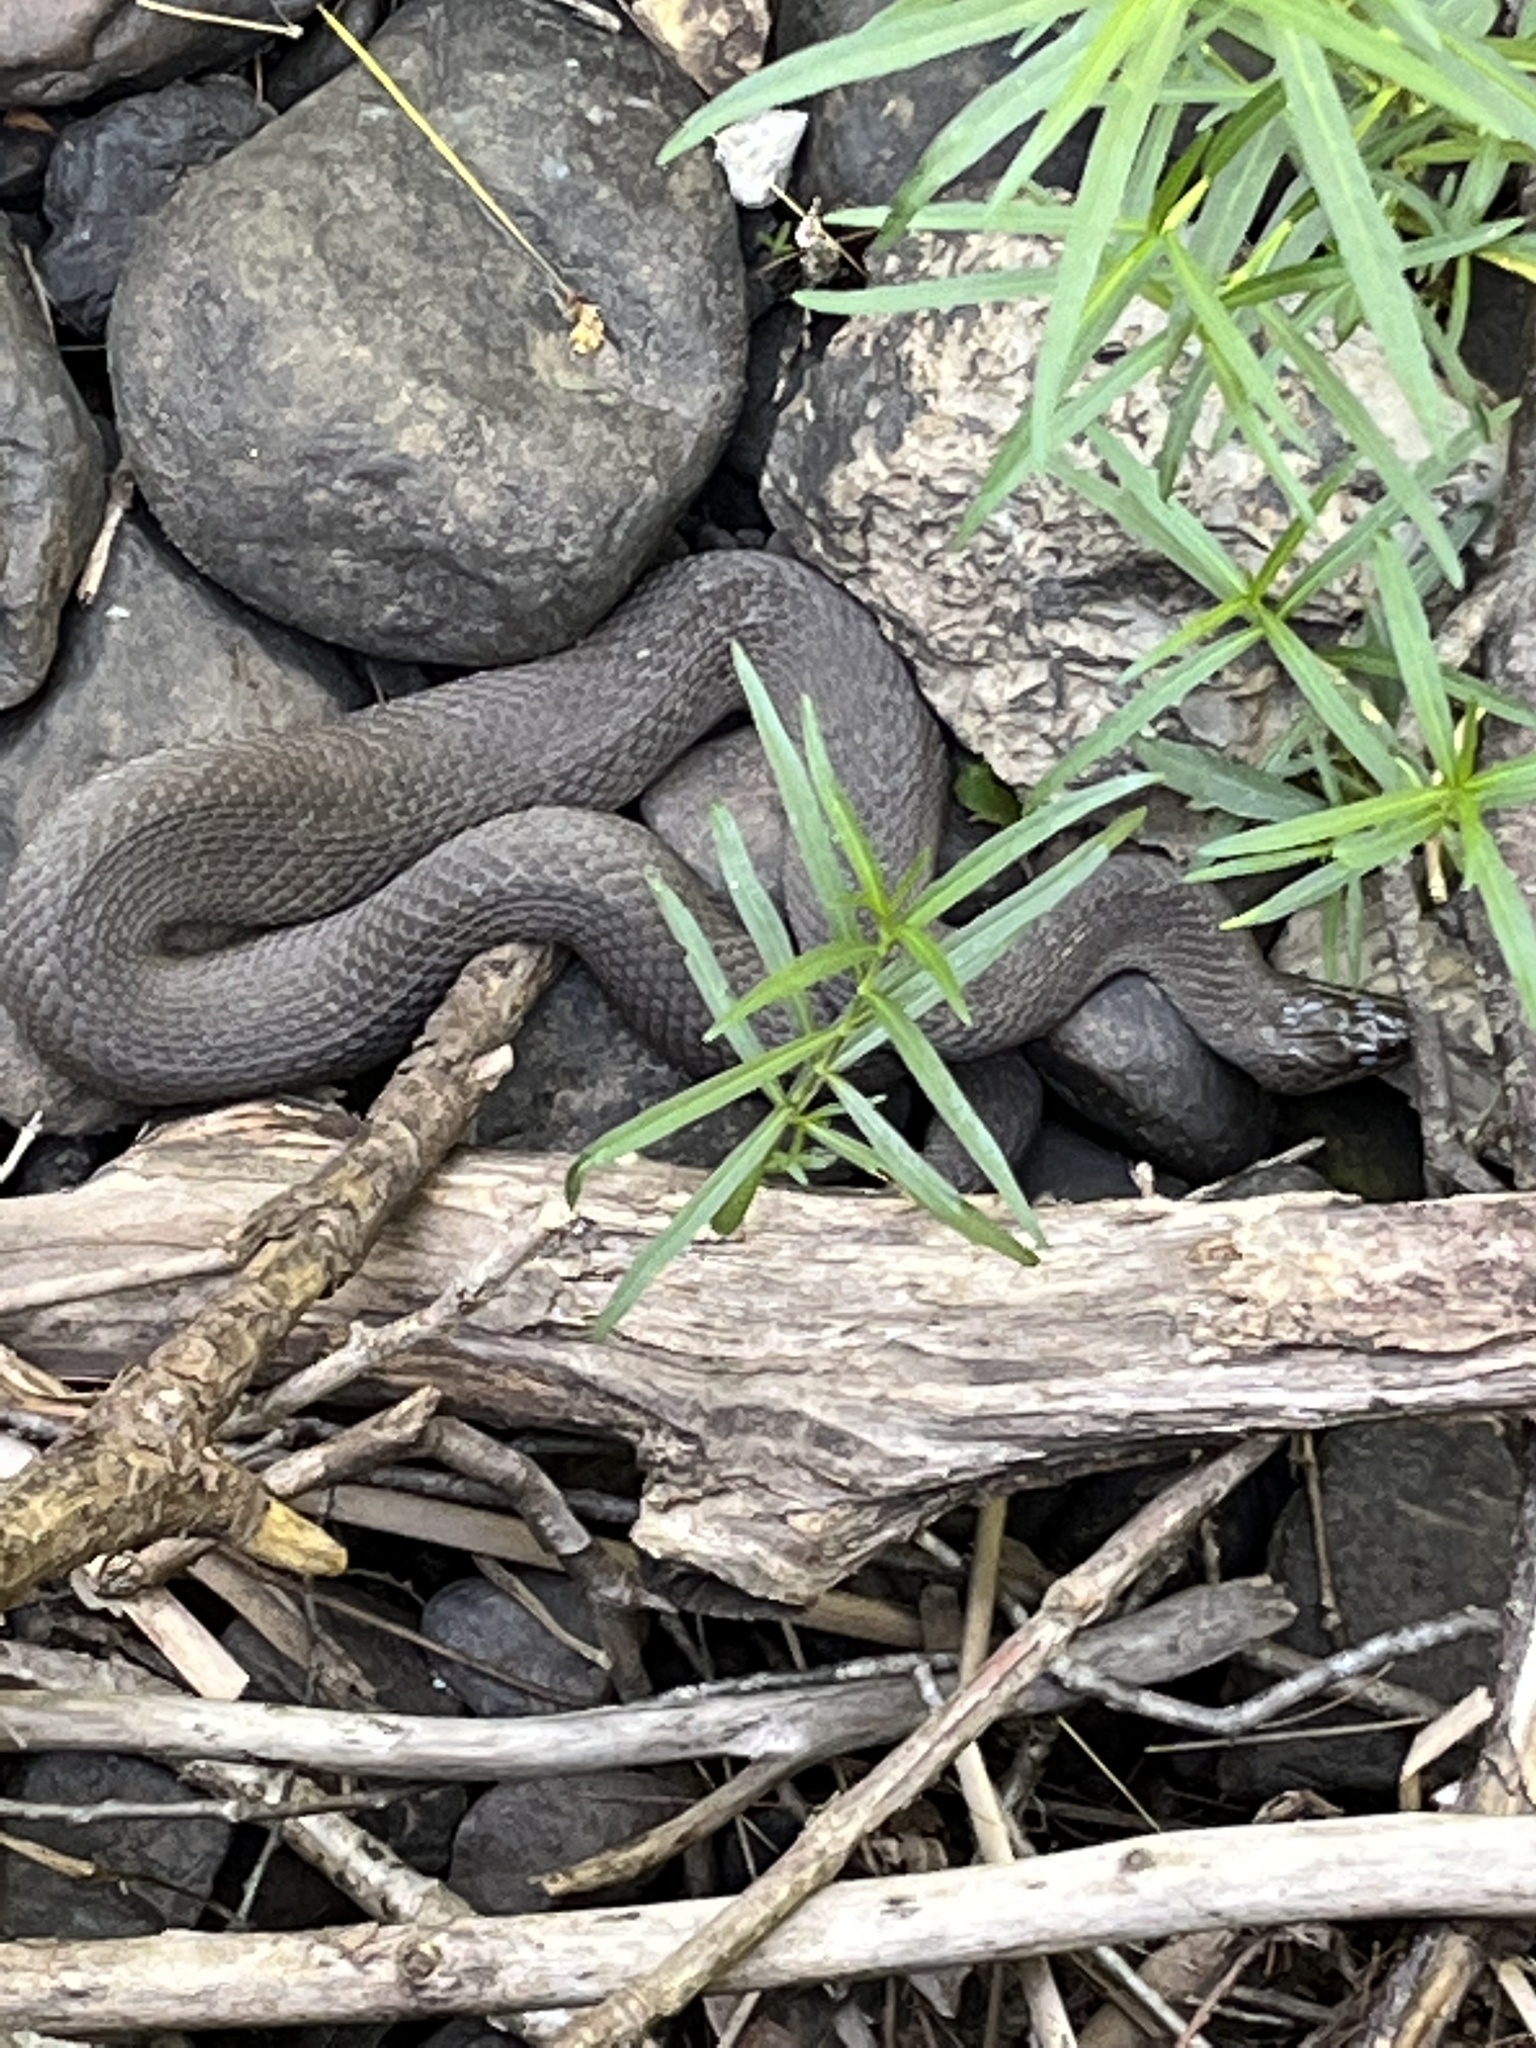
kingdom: Animalia
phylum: Chordata
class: Squamata
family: Colubridae
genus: Nerodia
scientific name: Nerodia sipedon
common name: Northern water snake
